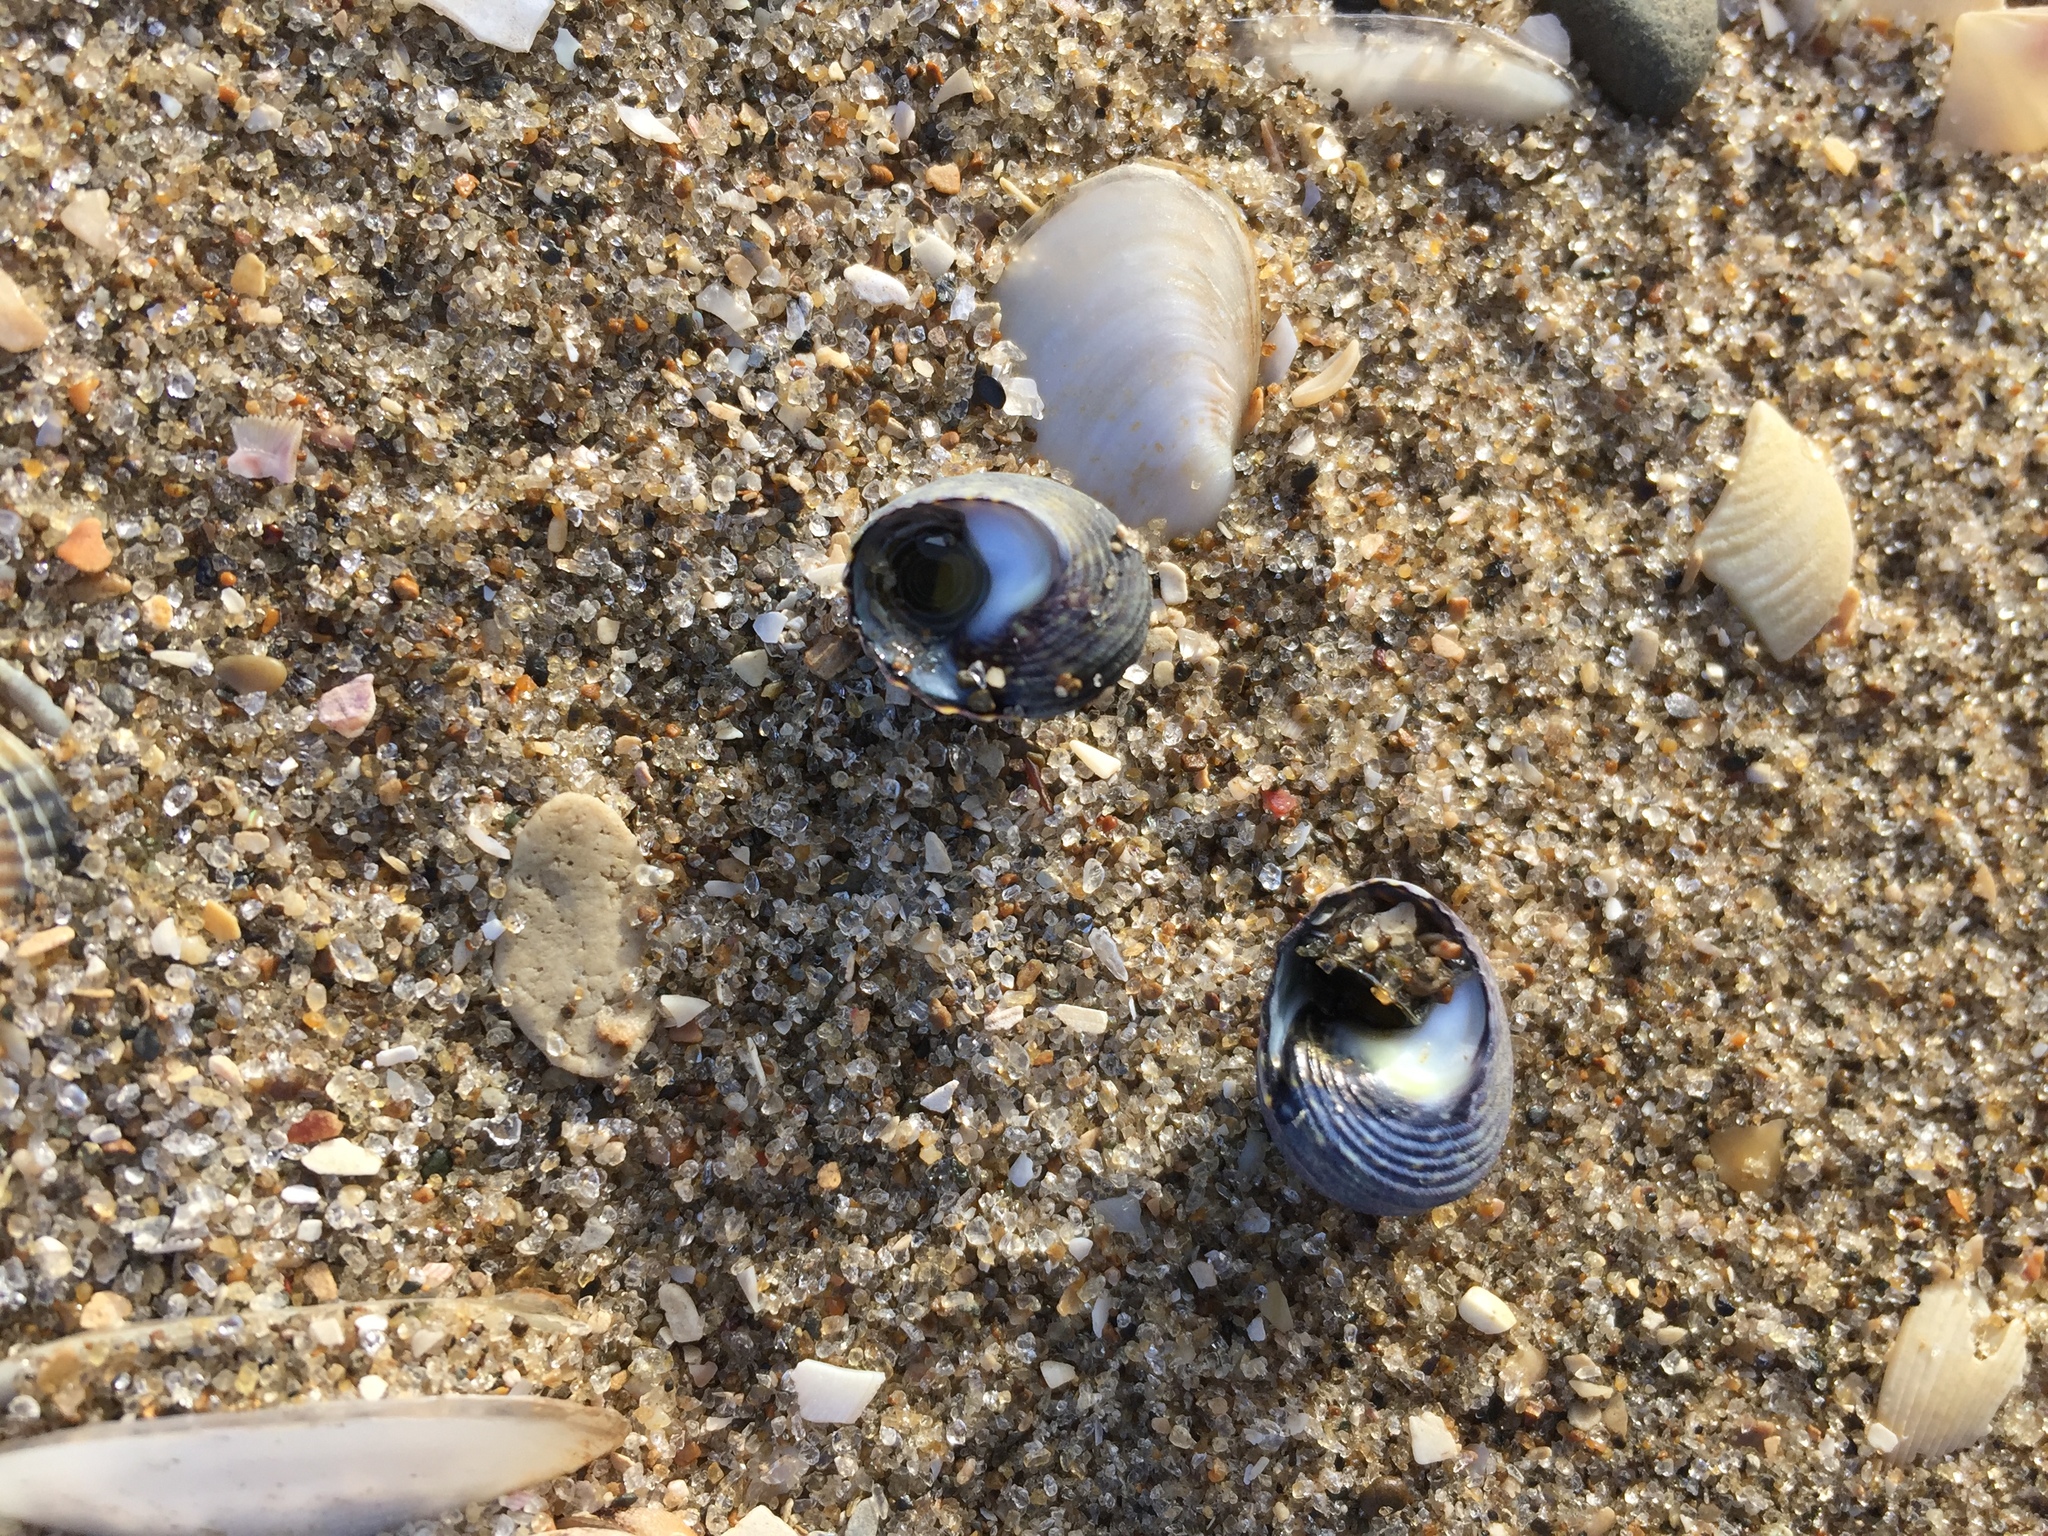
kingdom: Animalia
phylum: Mollusca
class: Gastropoda
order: Trochida
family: Trochidae
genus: Diloma
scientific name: Diloma subrostratum
